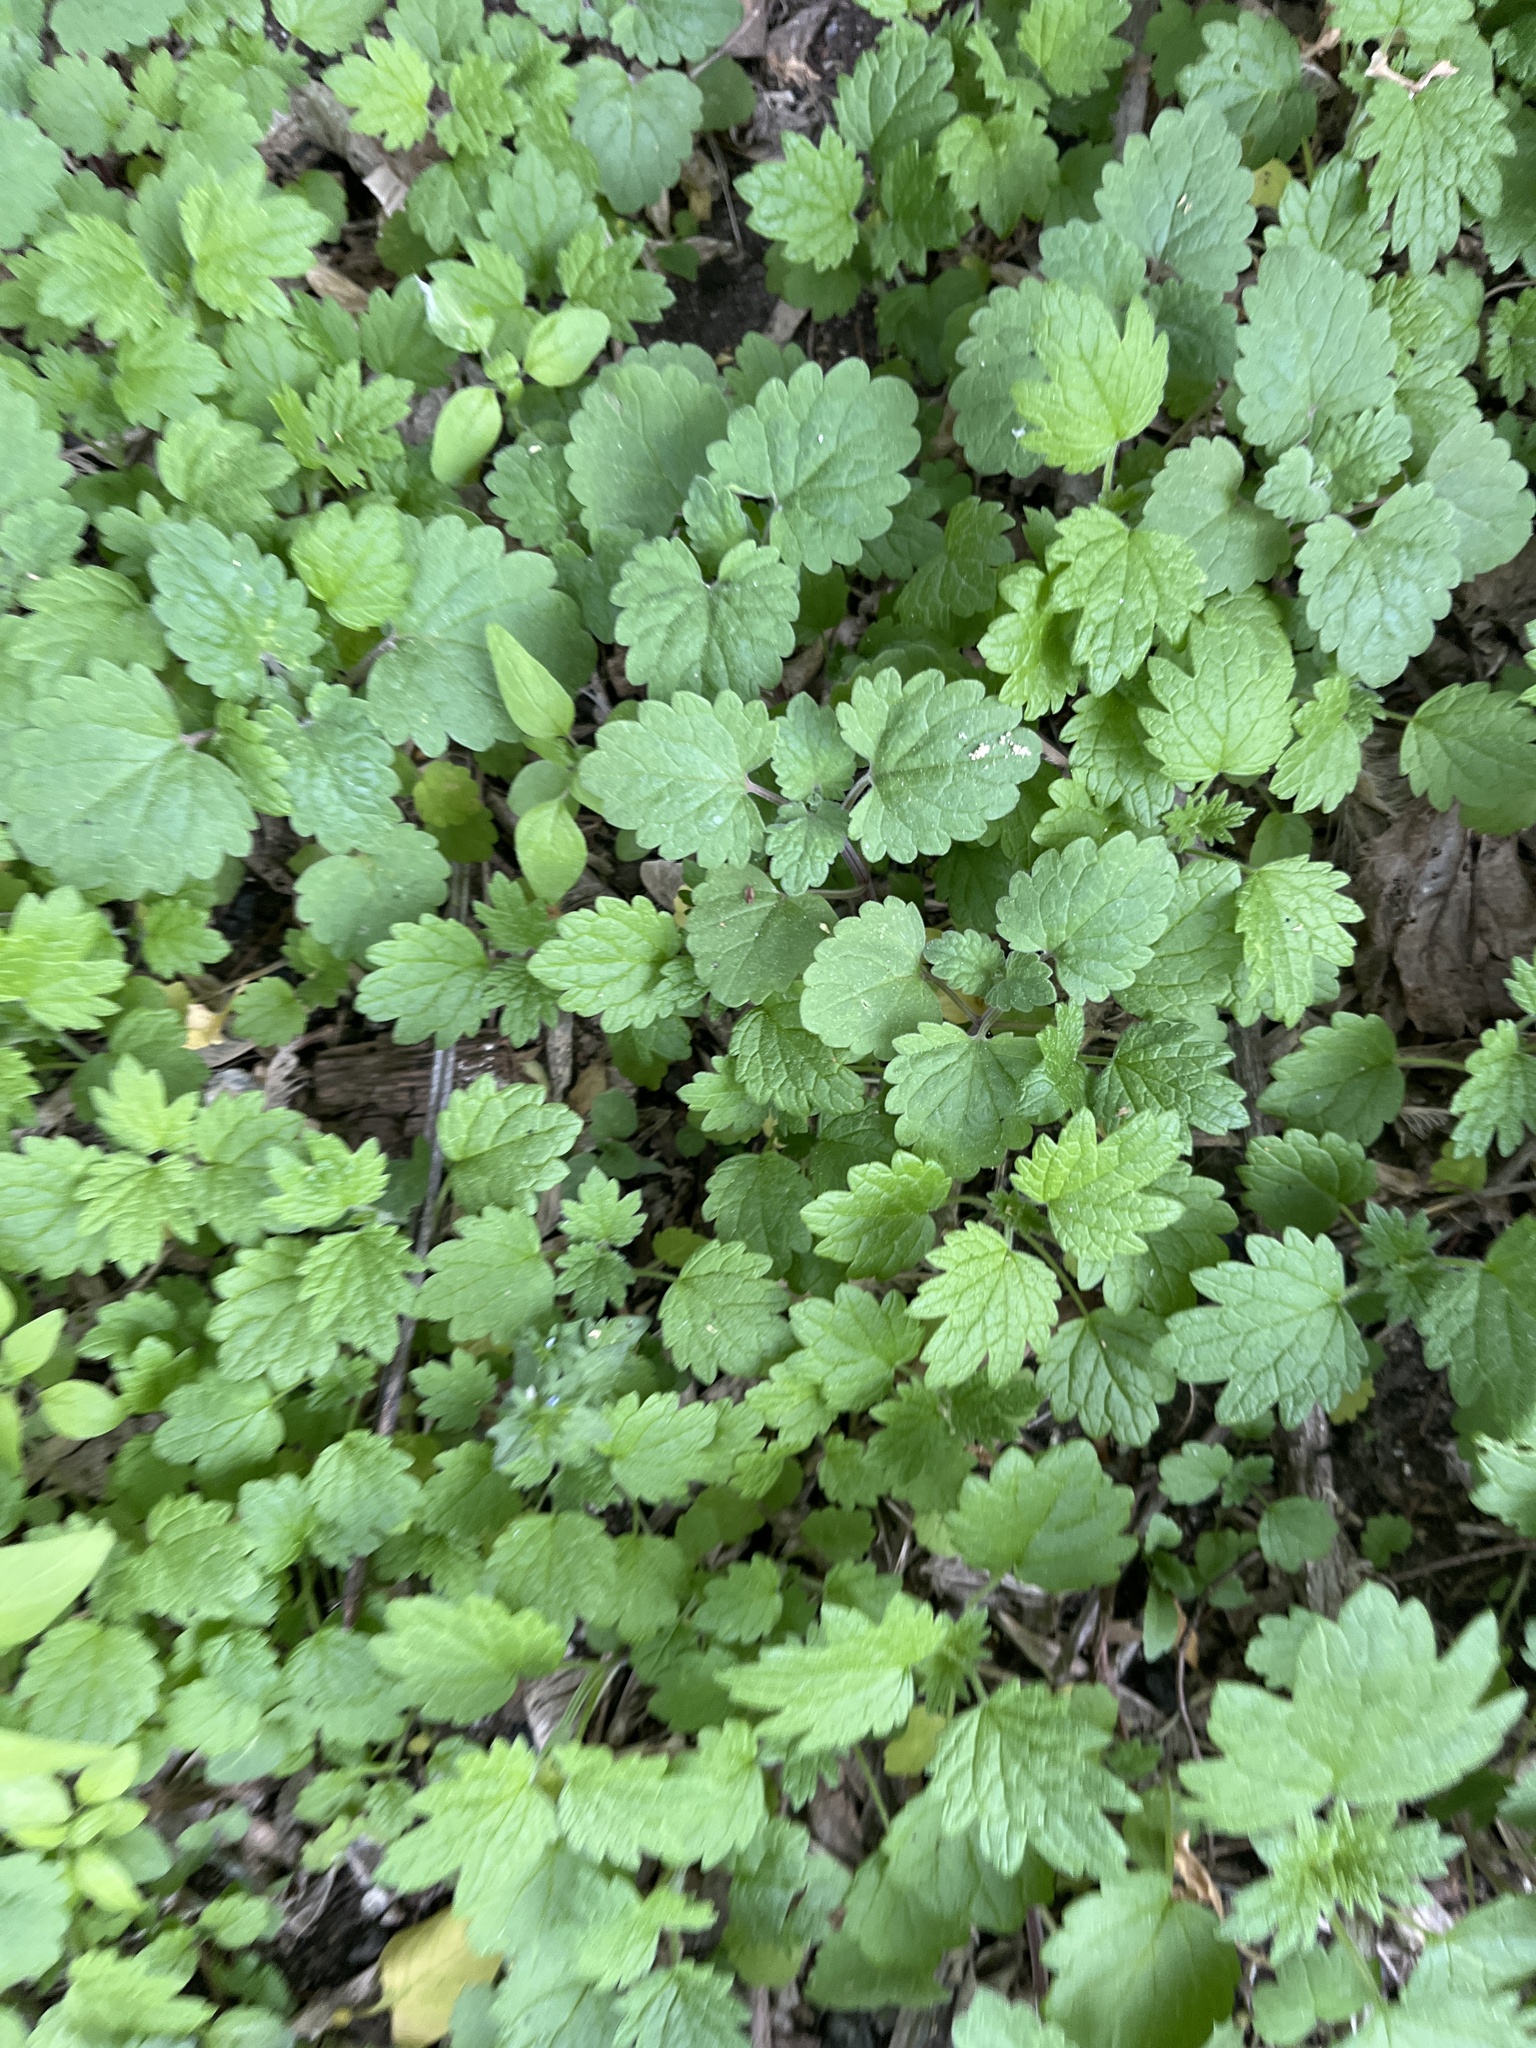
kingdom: Plantae
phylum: Tracheophyta
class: Magnoliopsida
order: Lamiales
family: Lamiaceae
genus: Leonurus
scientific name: Leonurus cardiaca
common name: Motherwort
